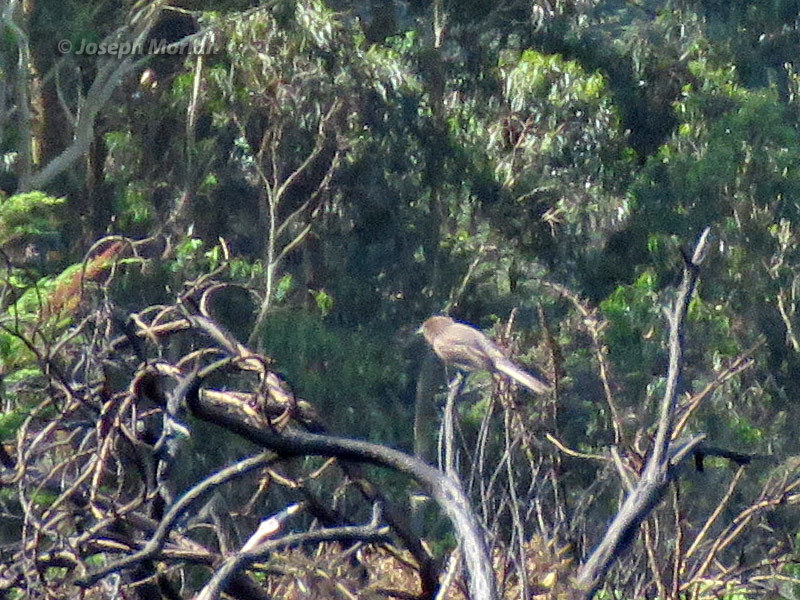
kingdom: Animalia
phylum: Chordata
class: Aves
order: Passeriformes
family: Tyrannidae
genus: Sayornis
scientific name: Sayornis nigricans
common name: Black phoebe
